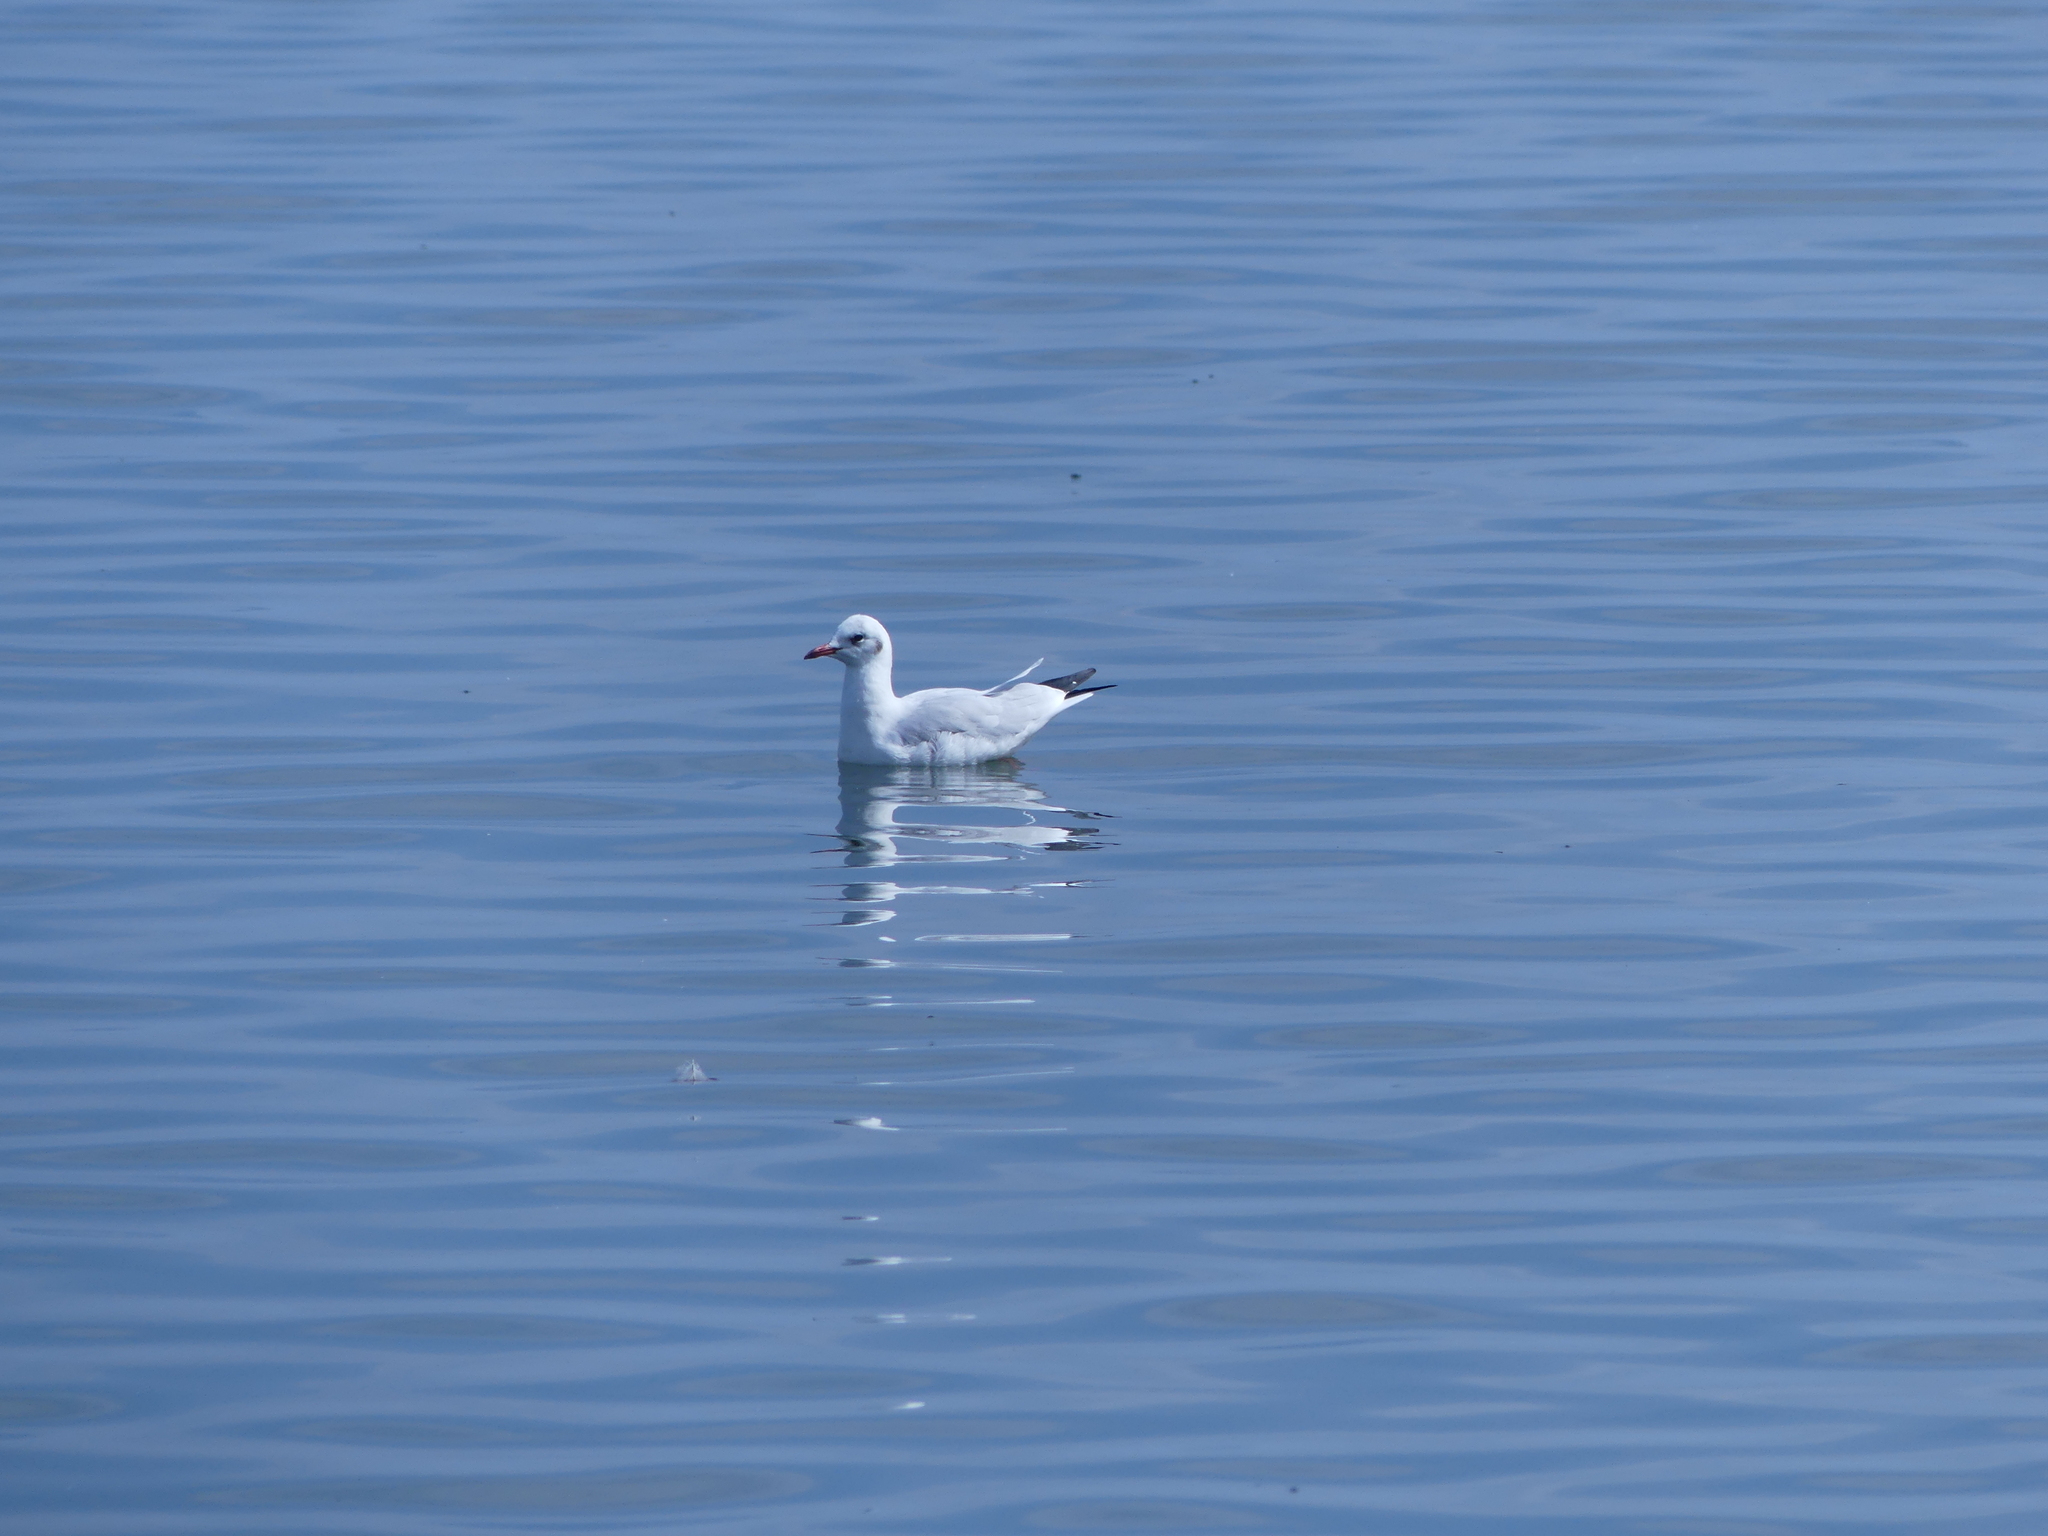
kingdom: Animalia
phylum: Chordata
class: Aves
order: Charadriiformes
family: Laridae
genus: Chroicocephalus
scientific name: Chroicocephalus ridibundus
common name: Black-headed gull
